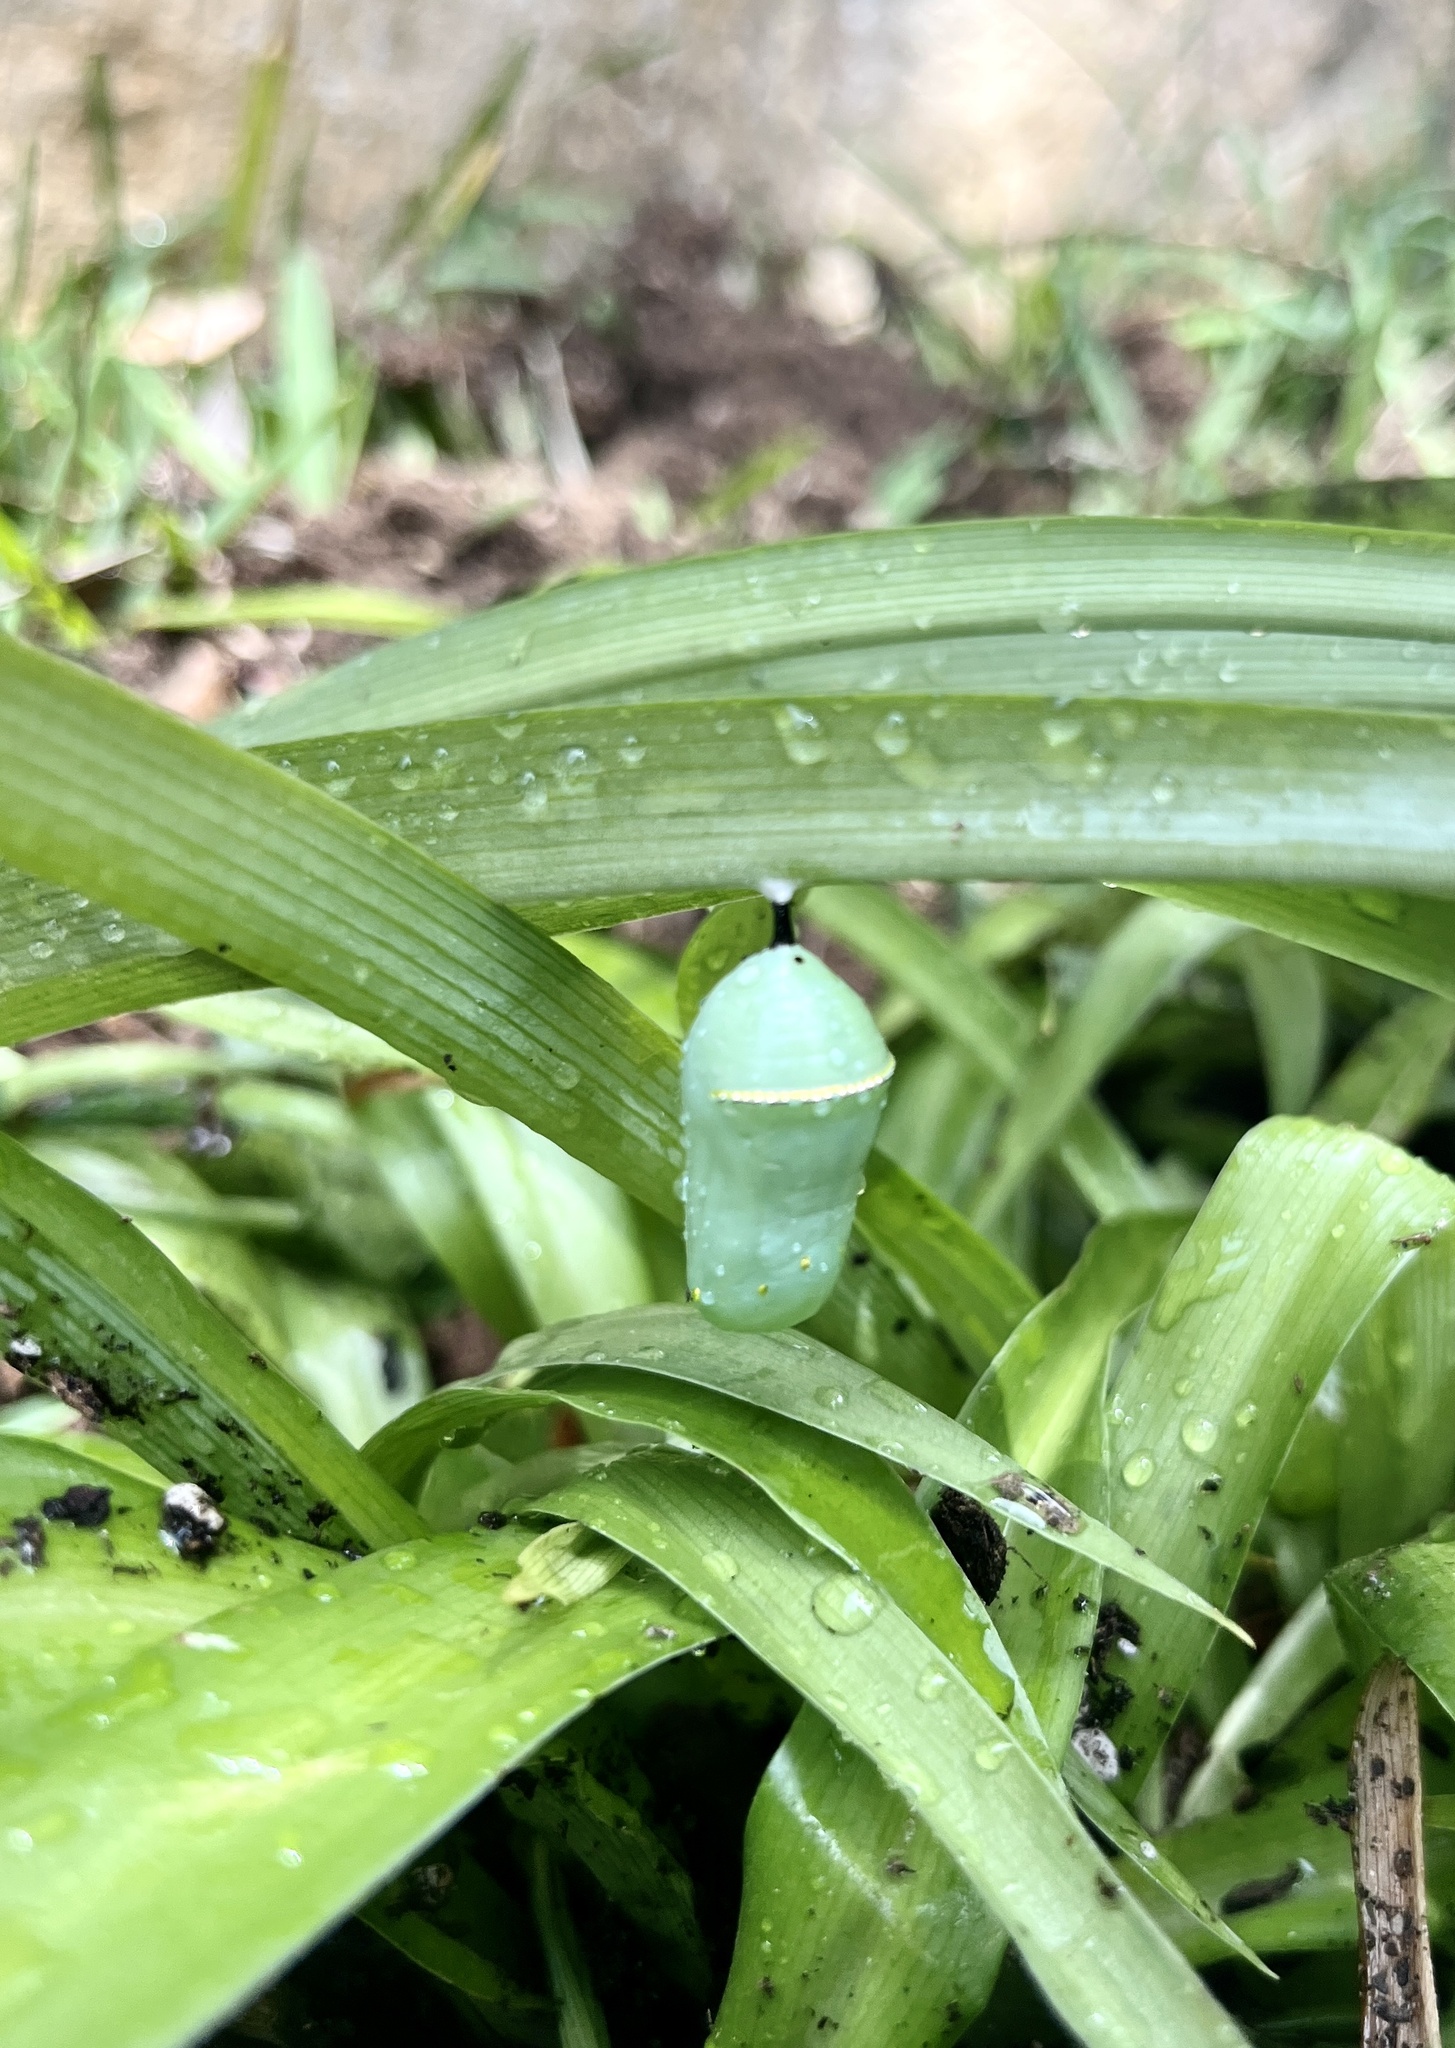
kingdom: Animalia
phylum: Arthropoda
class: Insecta
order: Lepidoptera
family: Nymphalidae
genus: Danaus
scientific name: Danaus plexippus
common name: Monarch
